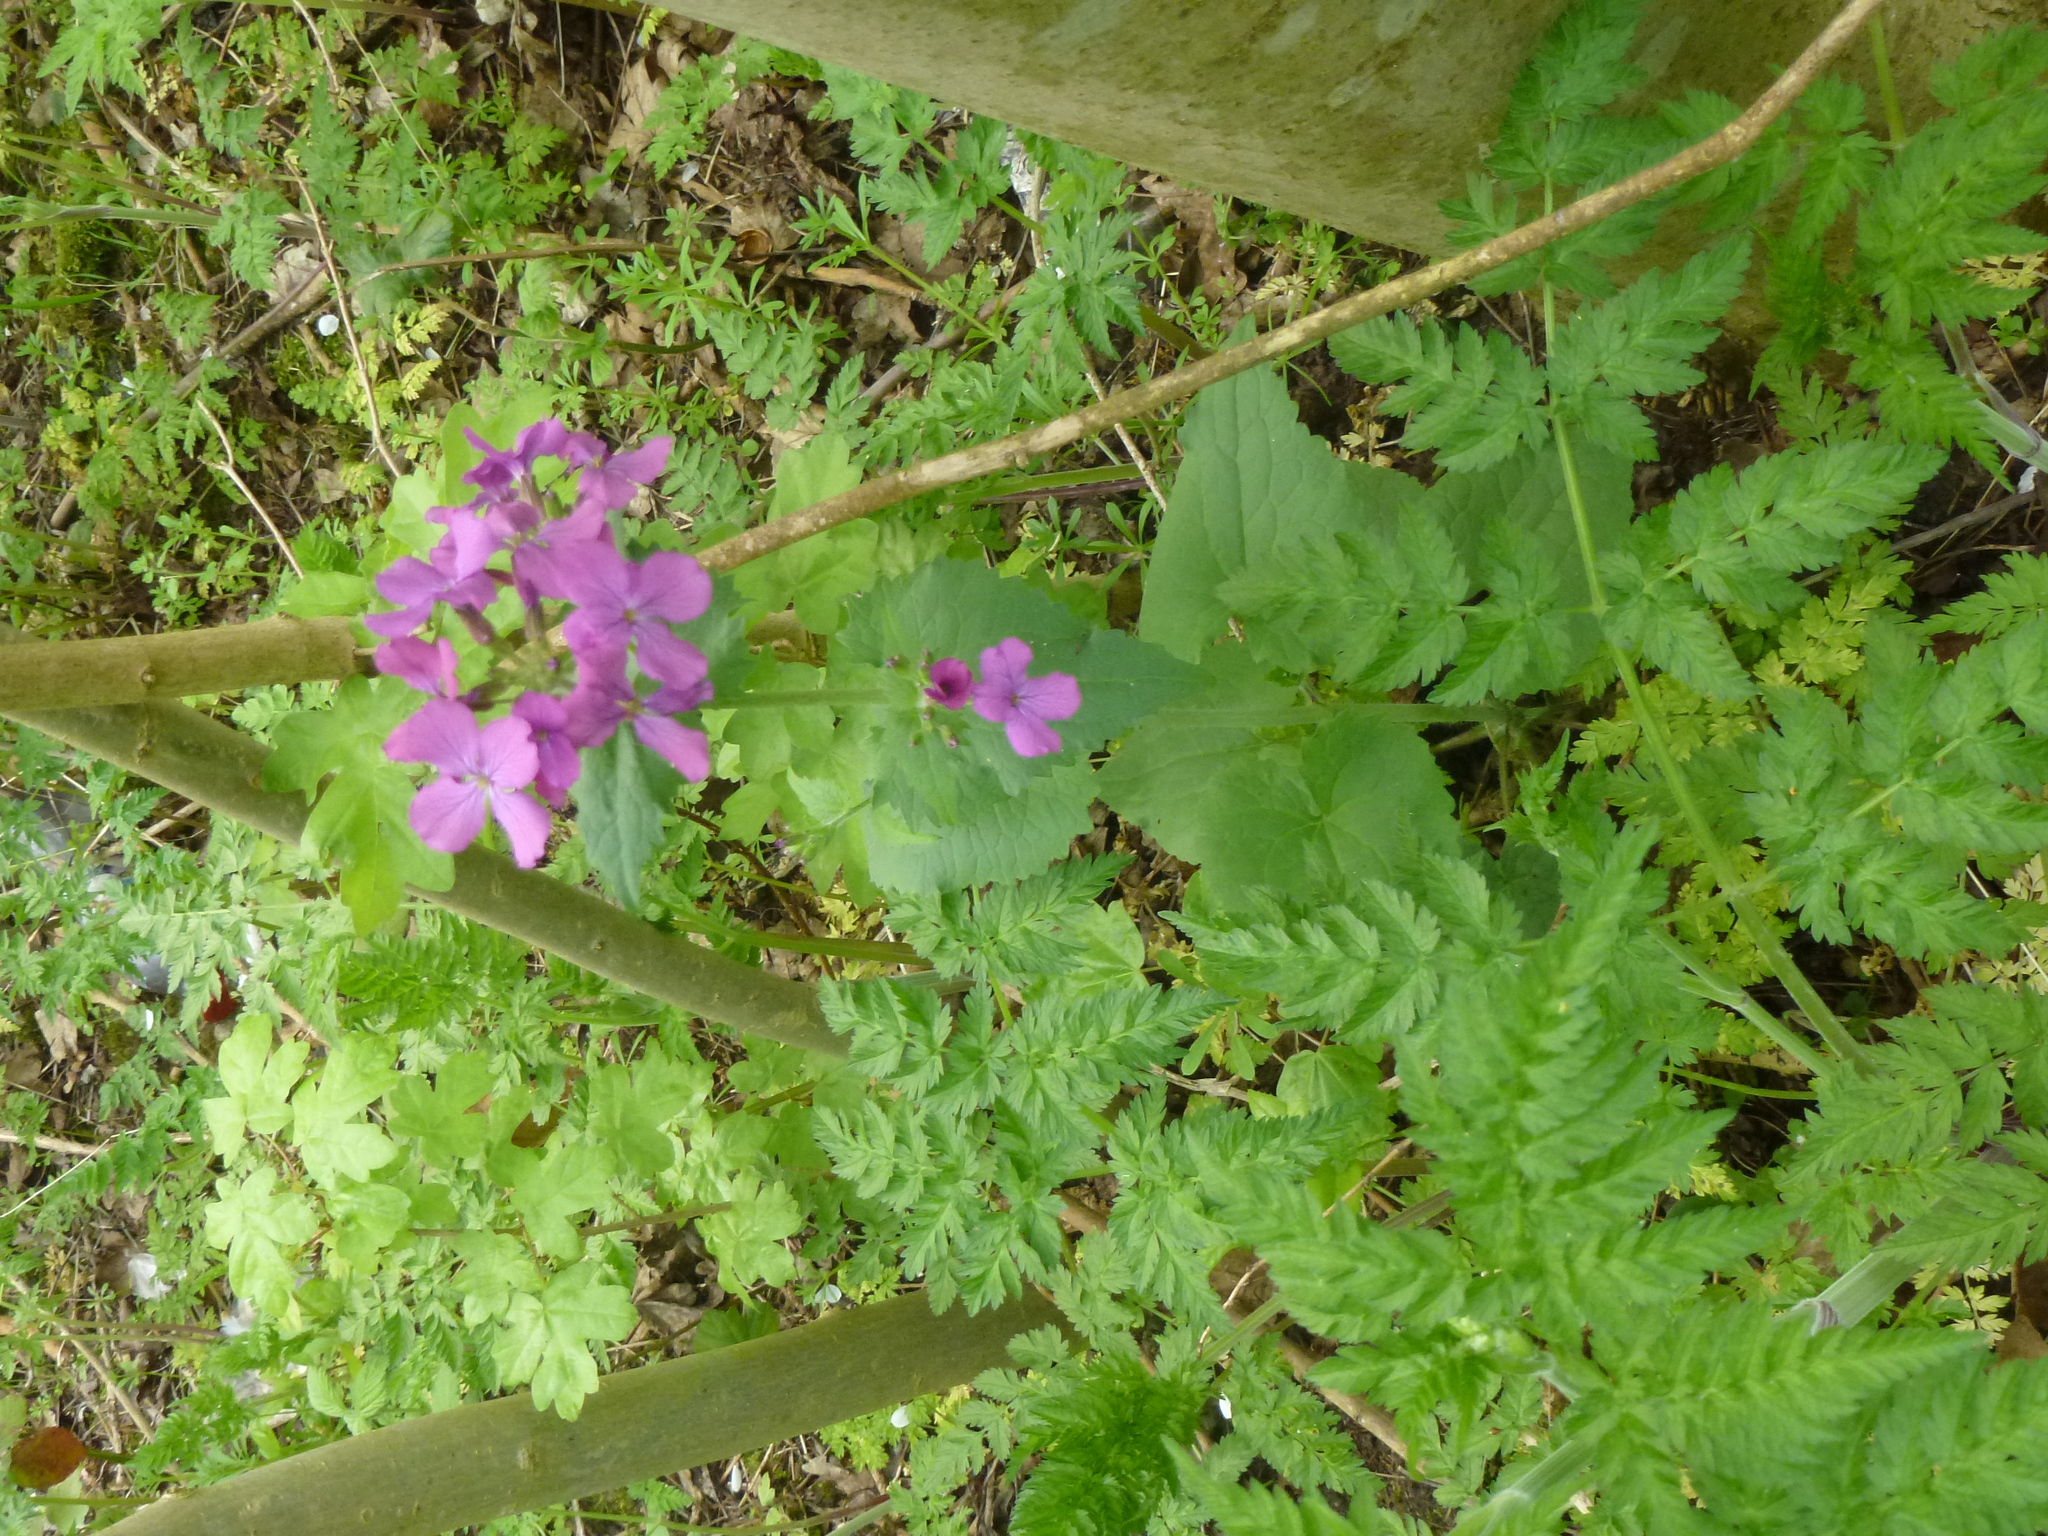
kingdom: Plantae
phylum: Tracheophyta
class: Magnoliopsida
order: Brassicales
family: Brassicaceae
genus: Lunaria
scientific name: Lunaria annua
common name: Honesty
